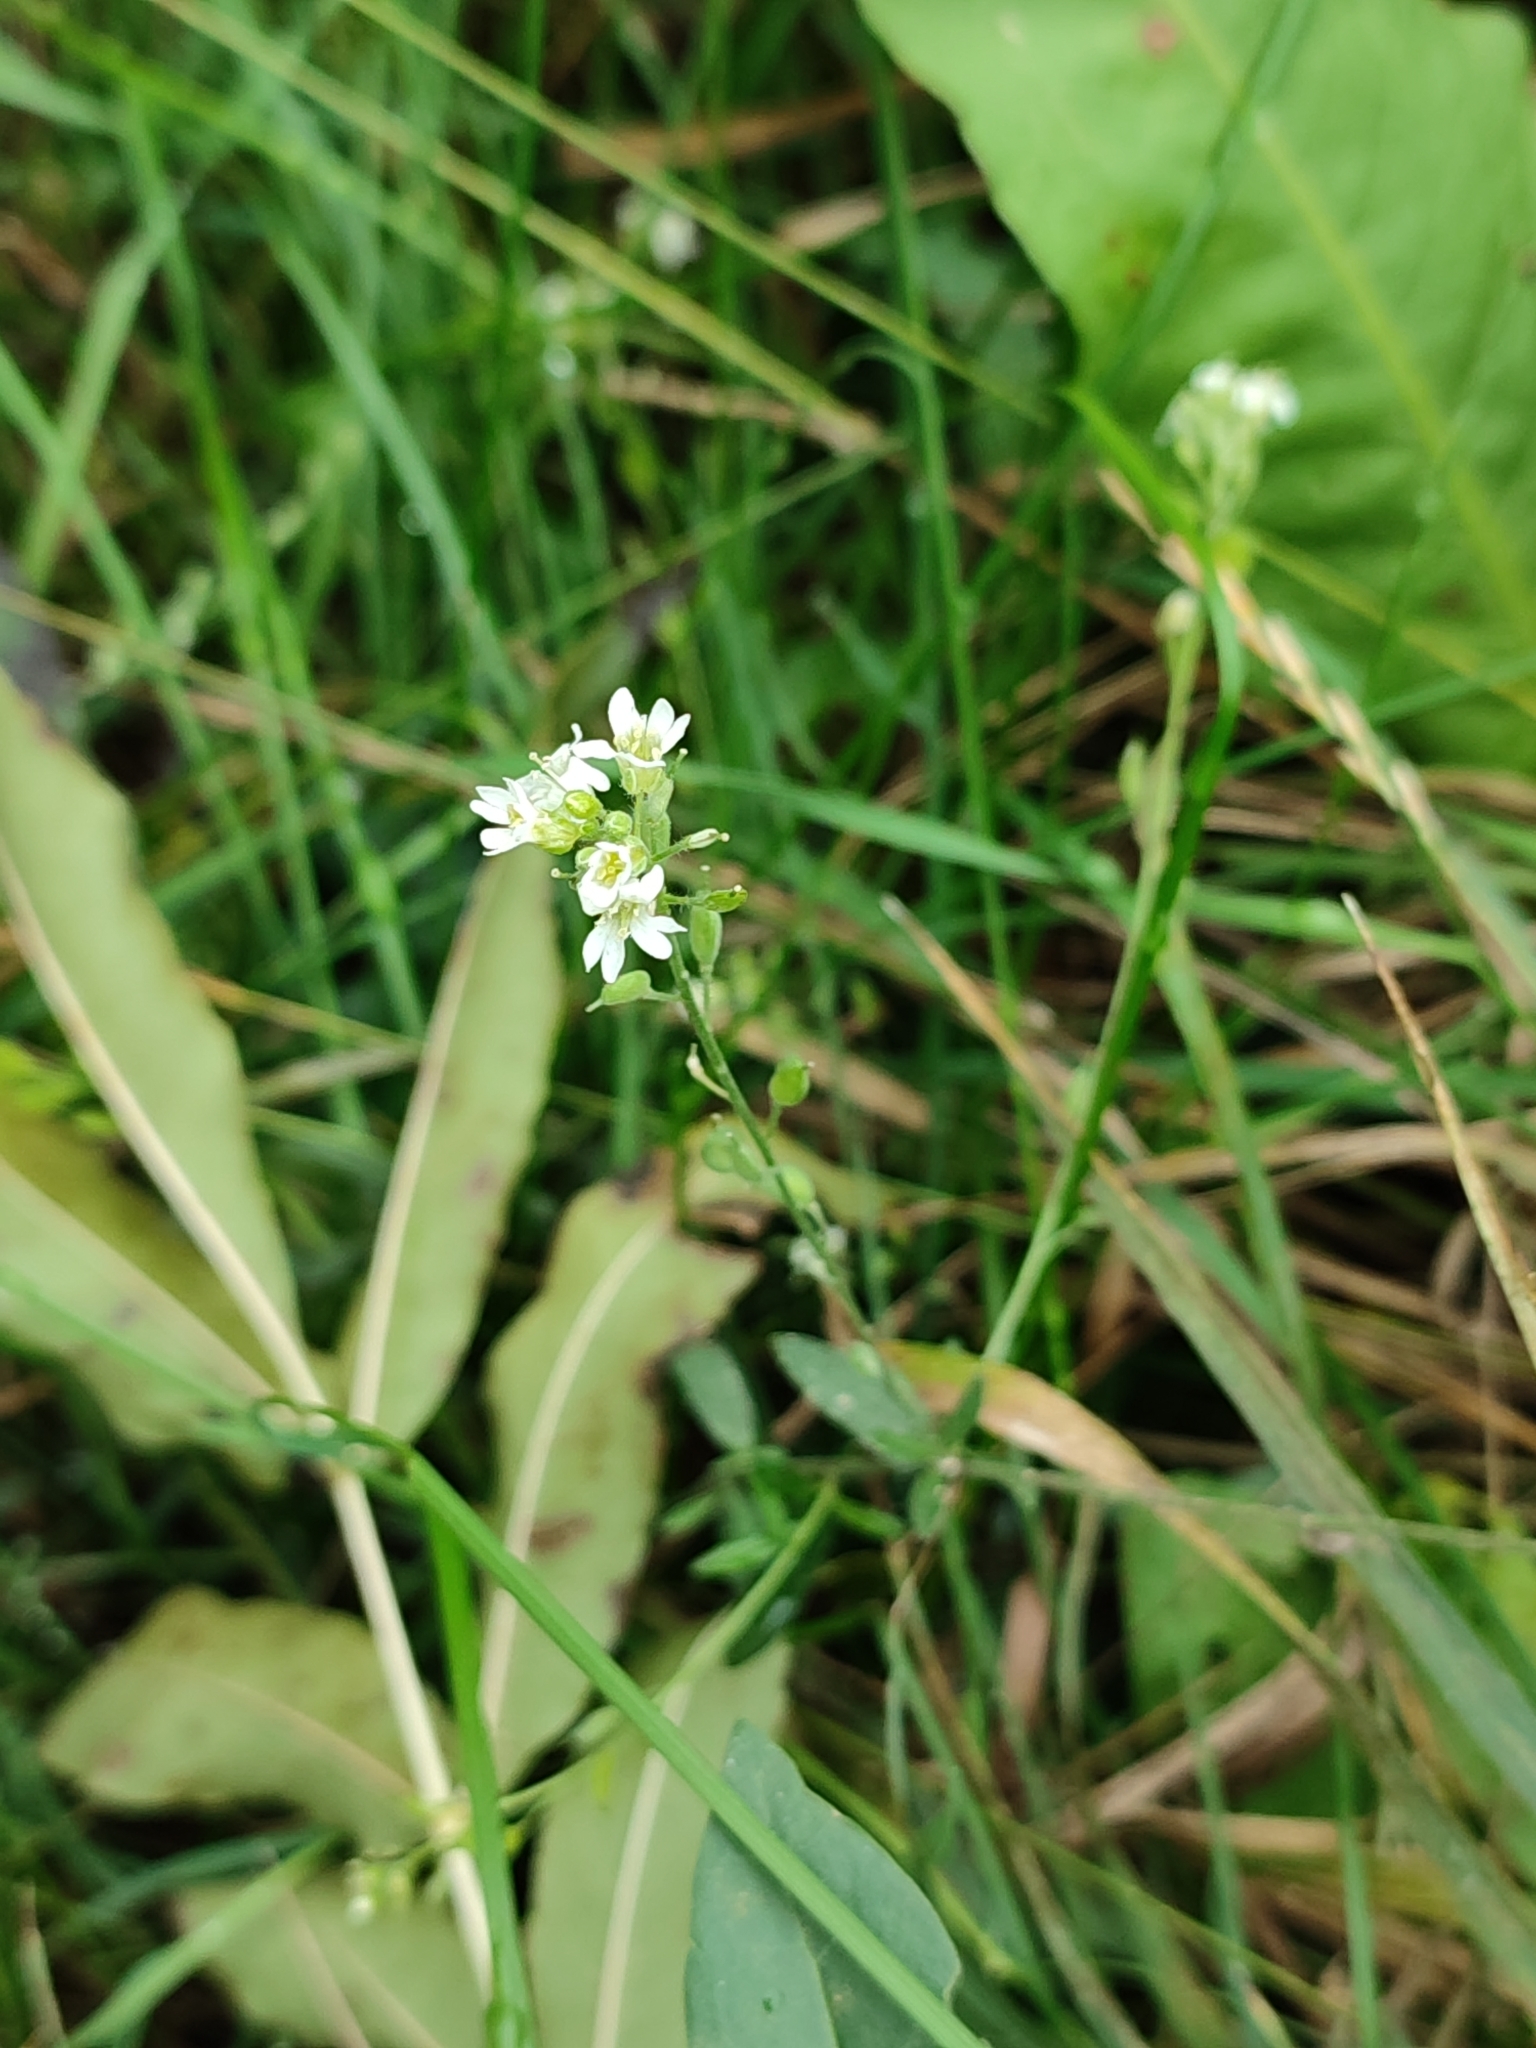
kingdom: Plantae
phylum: Tracheophyta
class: Magnoliopsida
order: Brassicales
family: Brassicaceae
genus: Berteroa
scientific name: Berteroa incana
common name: Hoary alison
